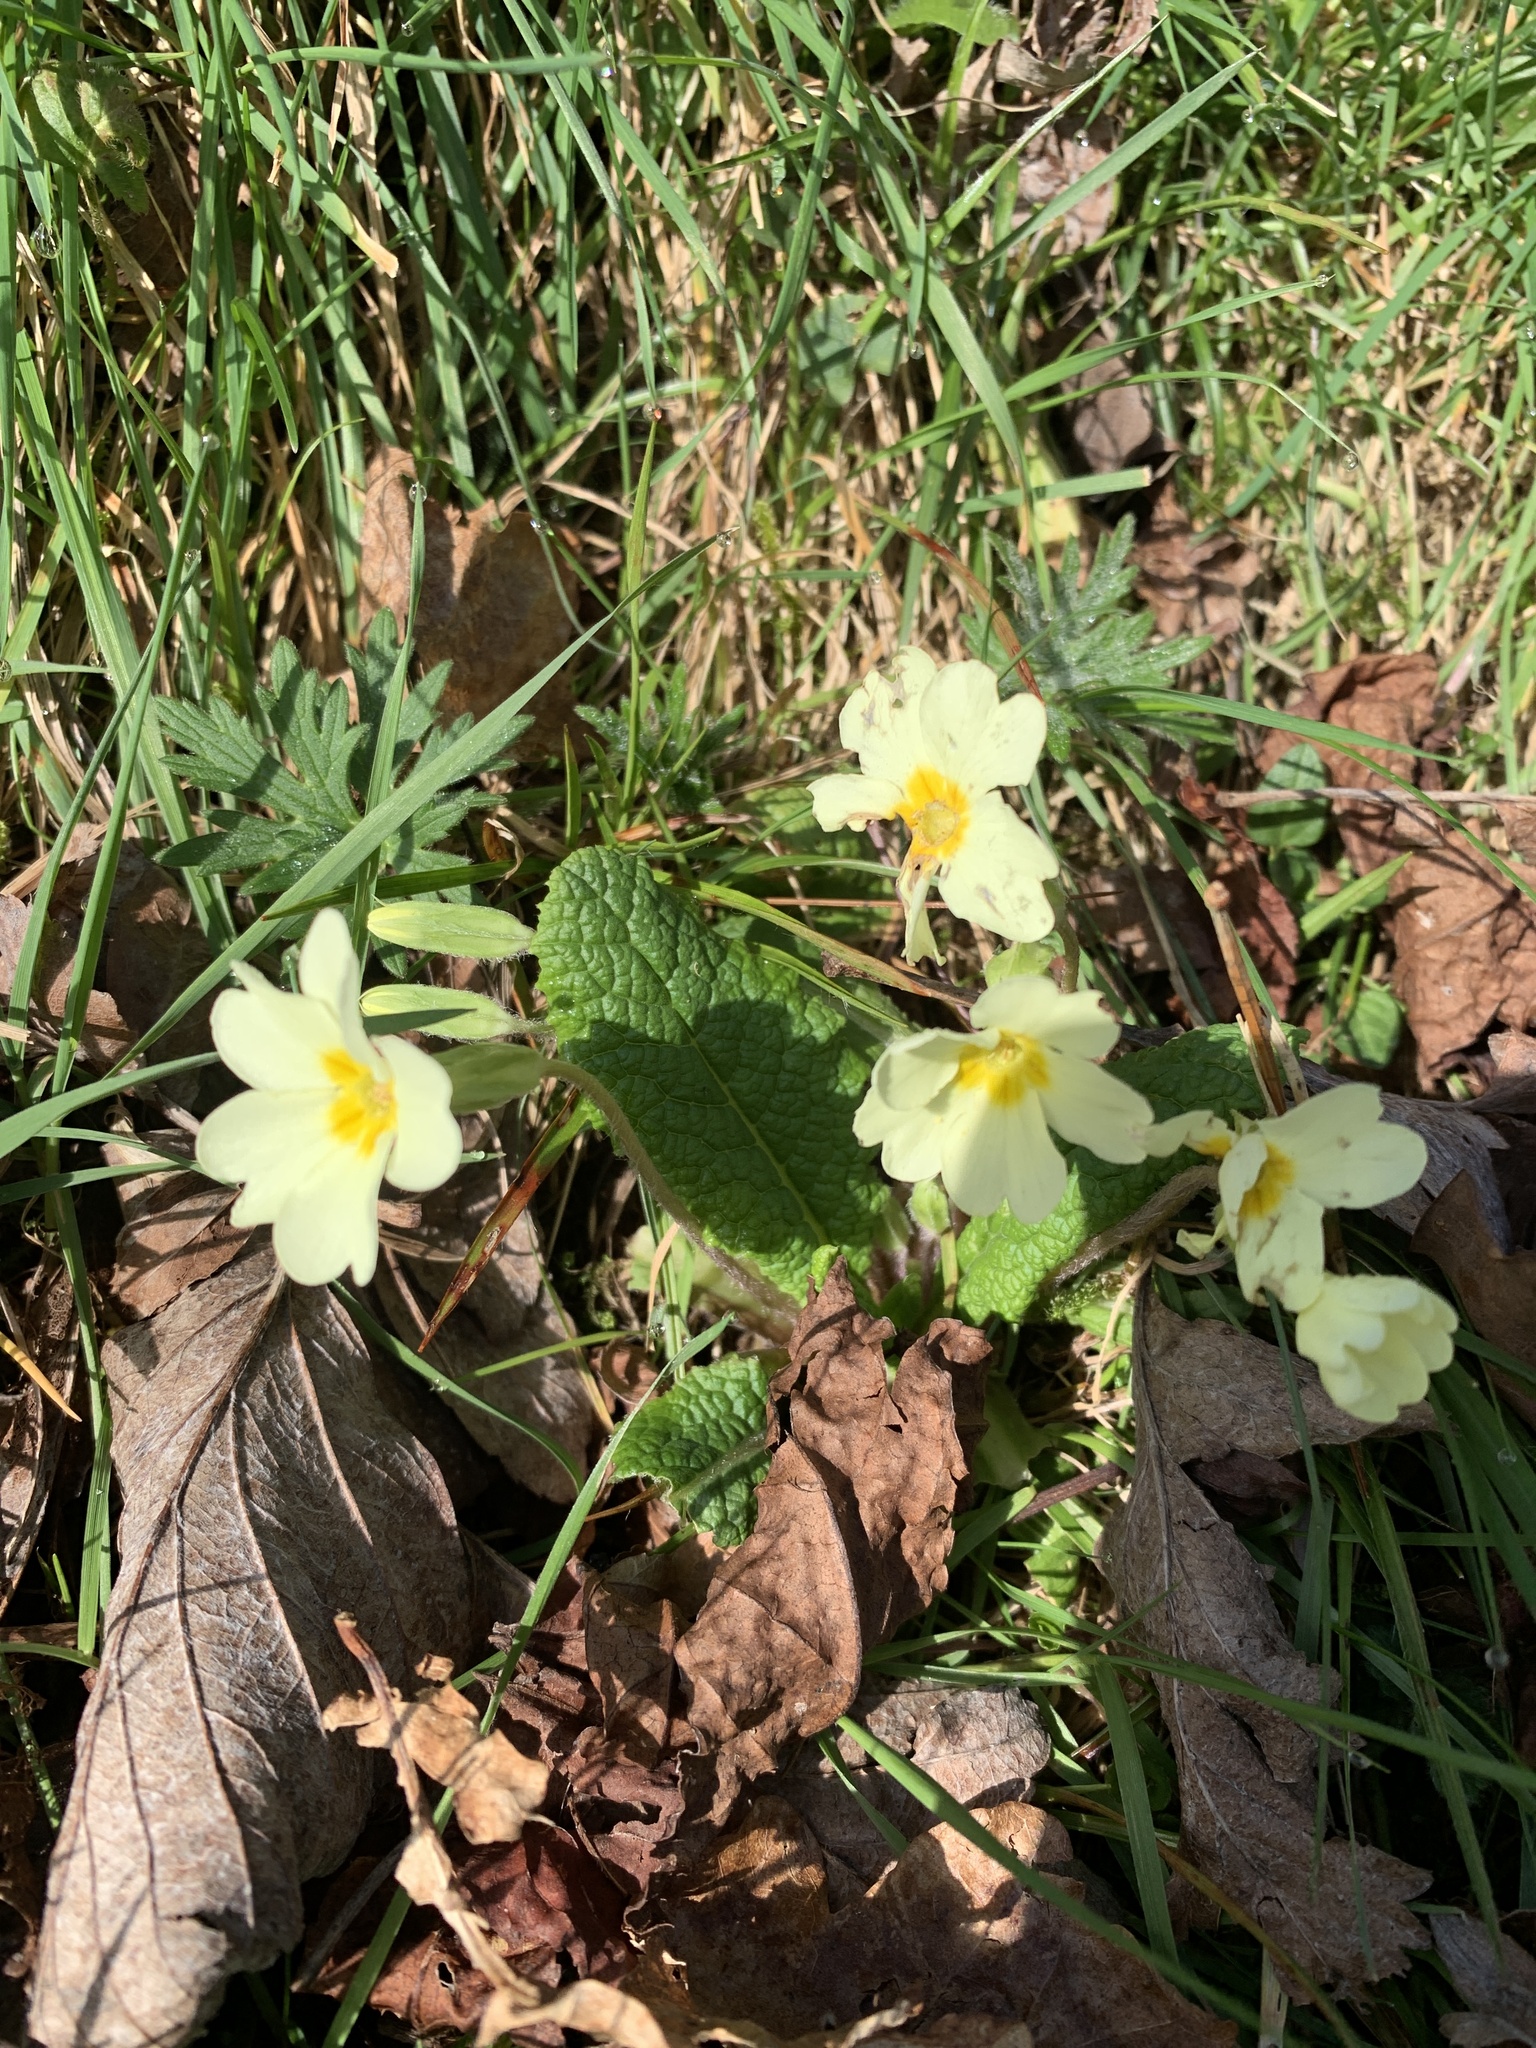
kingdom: Plantae
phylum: Tracheophyta
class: Magnoliopsida
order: Ericales
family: Primulaceae
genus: Primula
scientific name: Primula vulgaris
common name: Primrose
